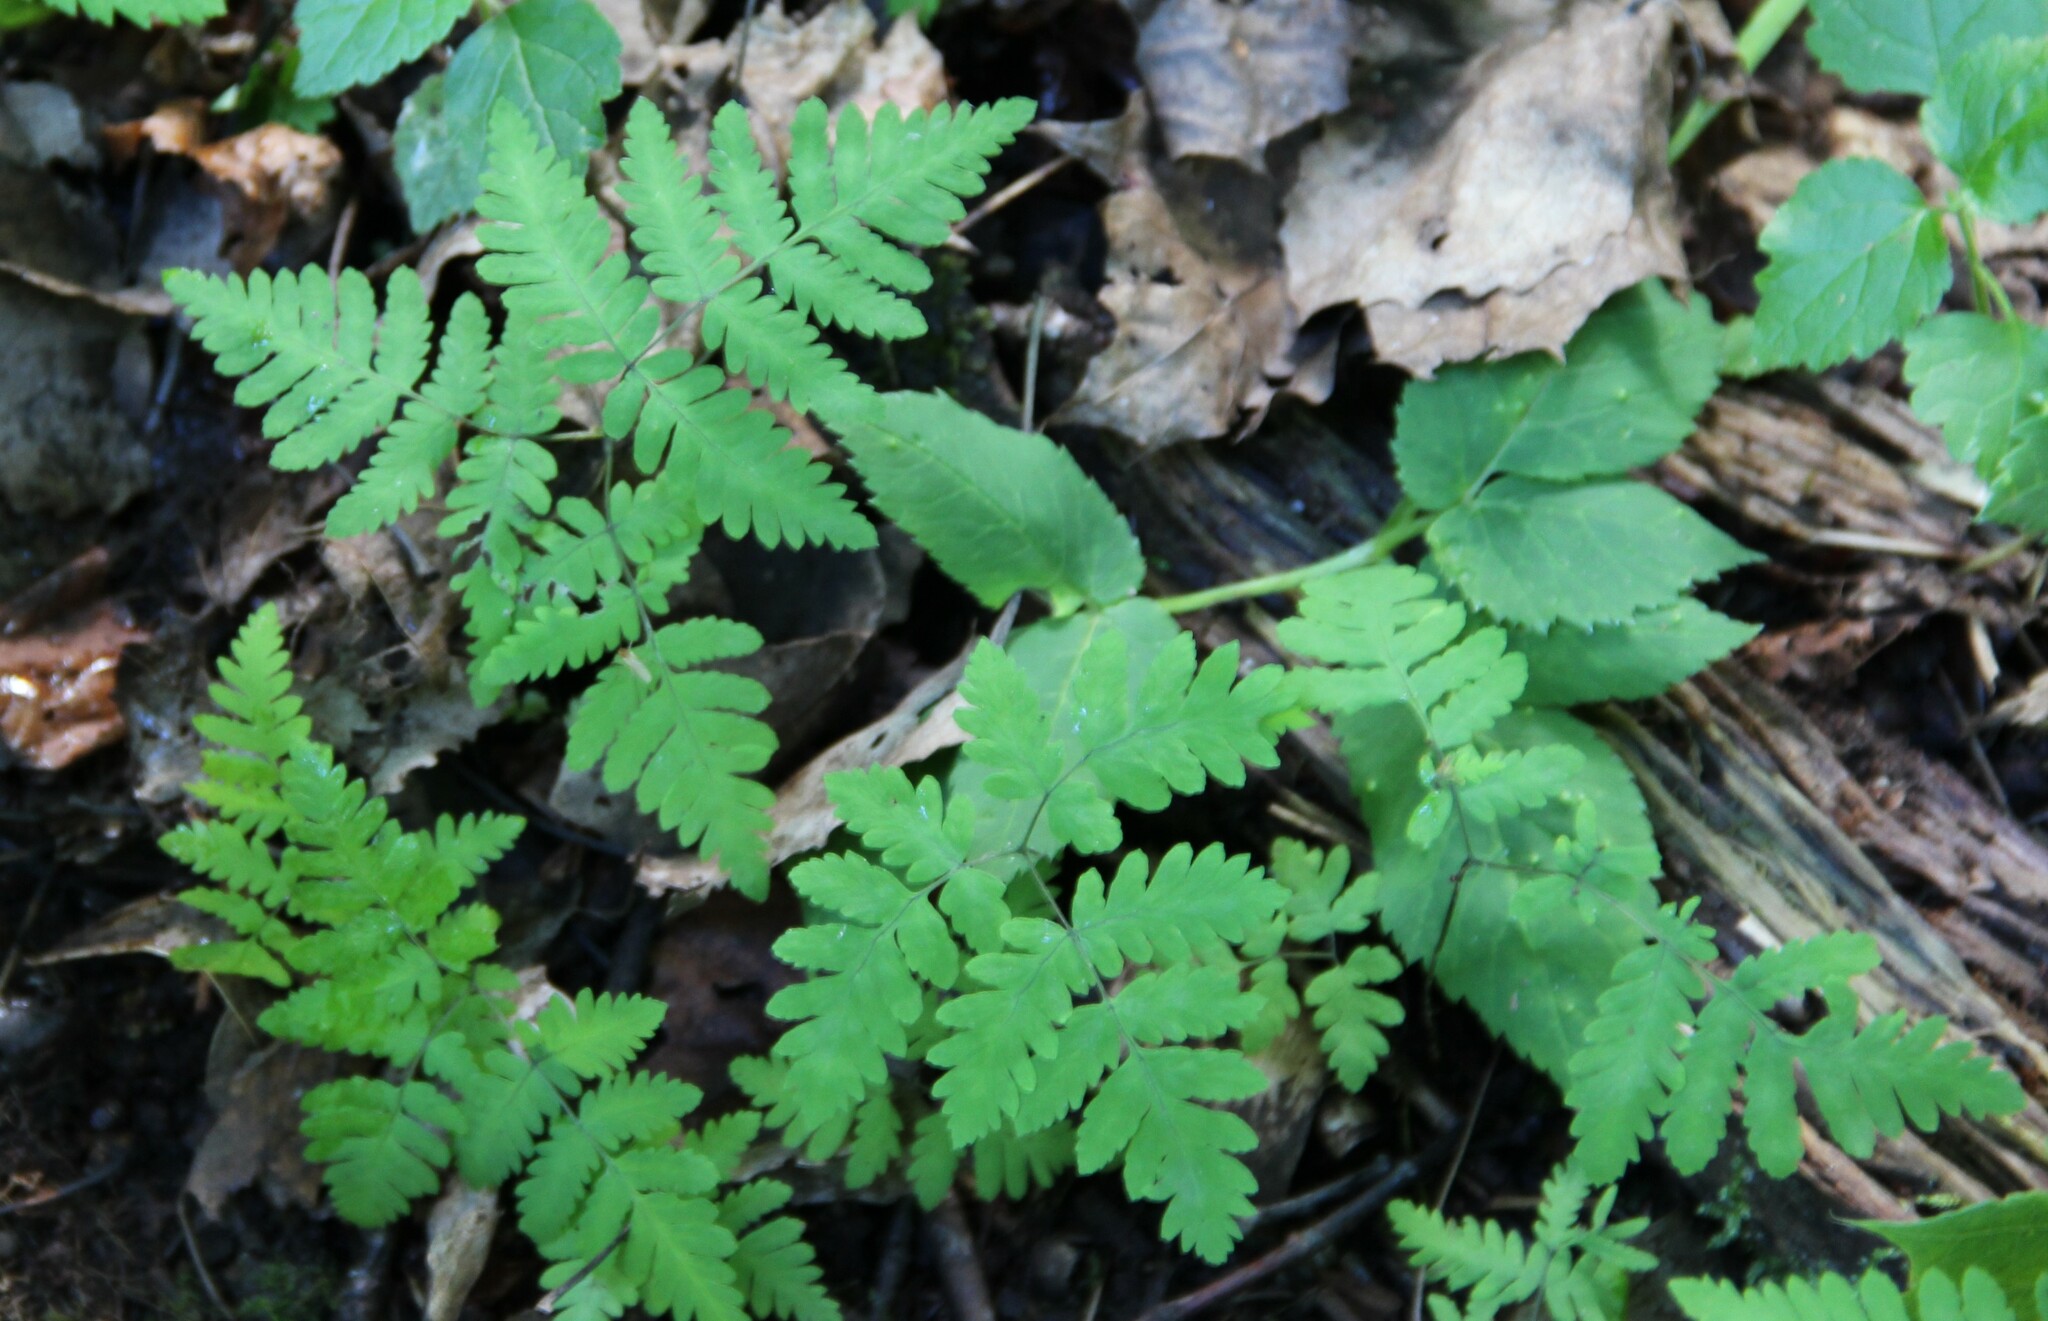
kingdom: Plantae
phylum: Tracheophyta
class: Polypodiopsida
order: Polypodiales
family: Cystopteridaceae
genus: Gymnocarpium
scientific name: Gymnocarpium dryopteris
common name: Oak fern
